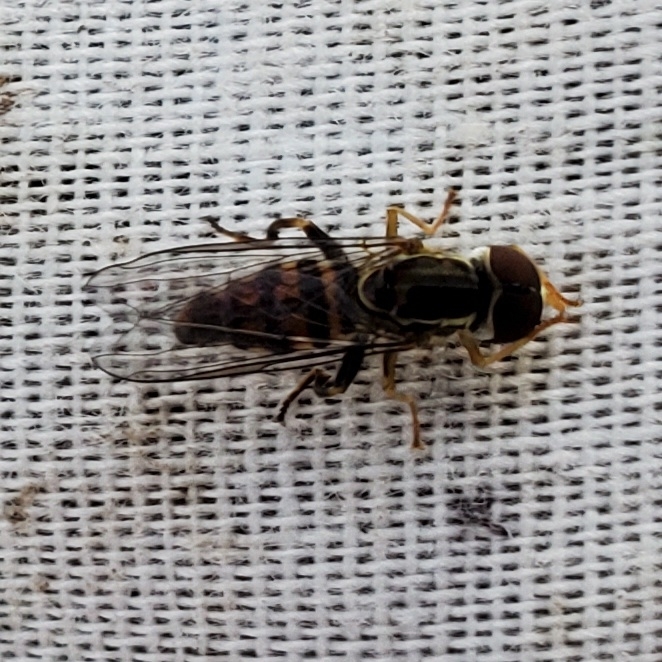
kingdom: Animalia
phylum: Arthropoda
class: Insecta
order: Diptera
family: Syrphidae
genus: Toxomerus
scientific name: Toxomerus geminatus
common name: Eastern calligrapher
